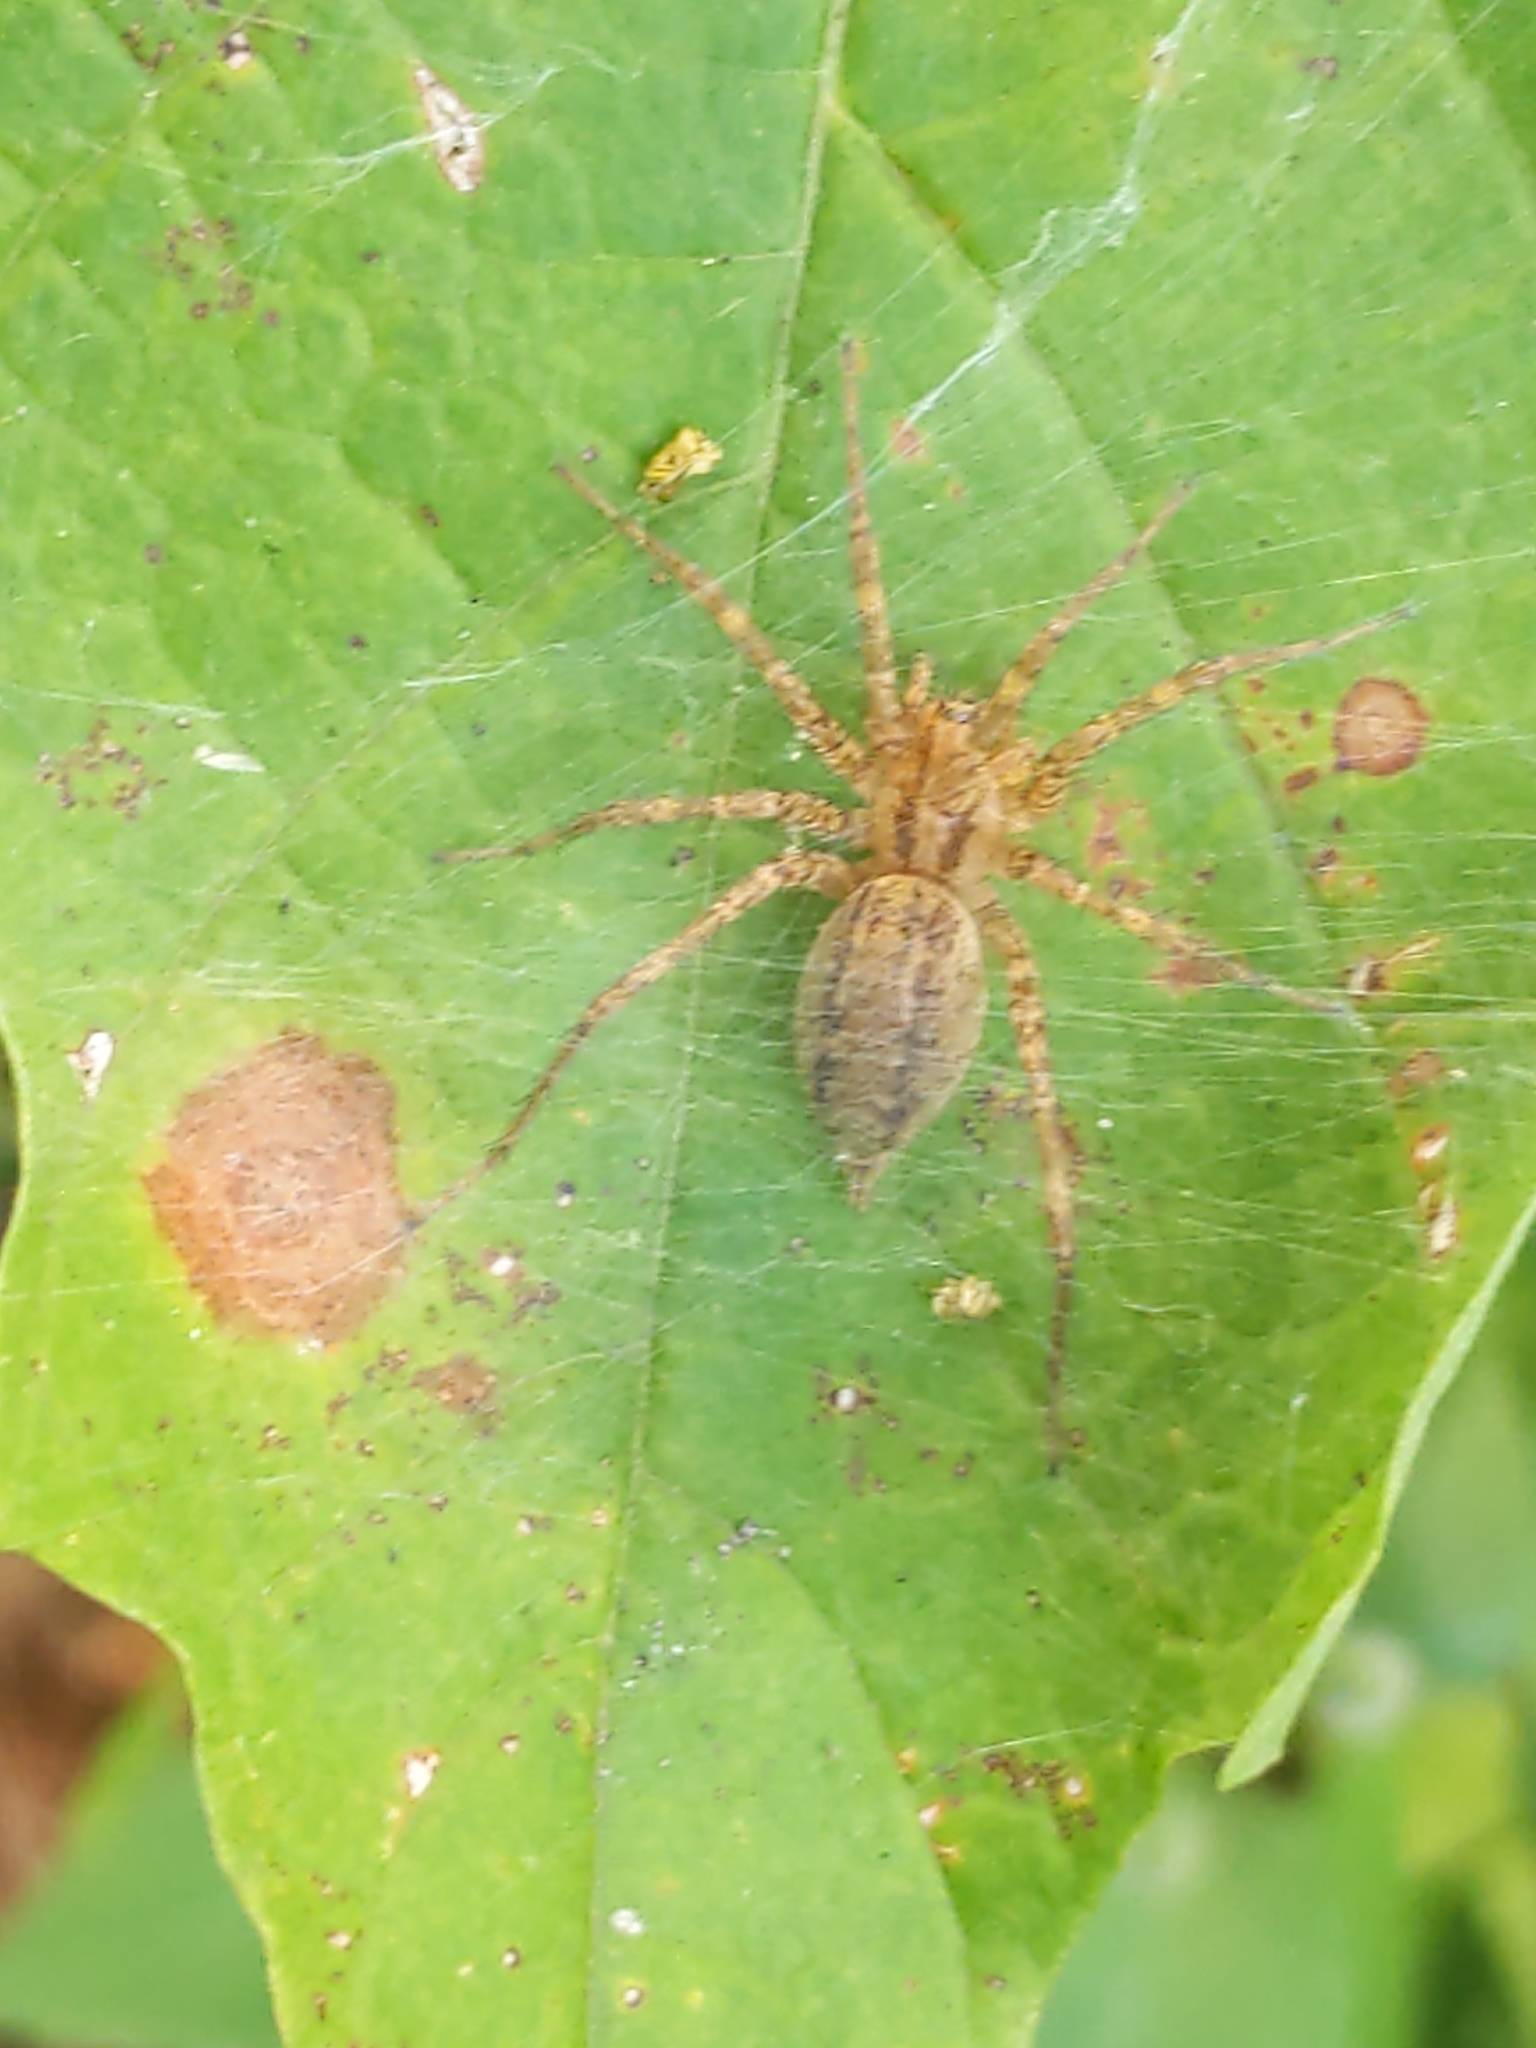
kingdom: Animalia
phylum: Arthropoda
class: Arachnida
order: Araneae
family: Agelenidae
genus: Agelenopsis
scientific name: Agelenopsis
